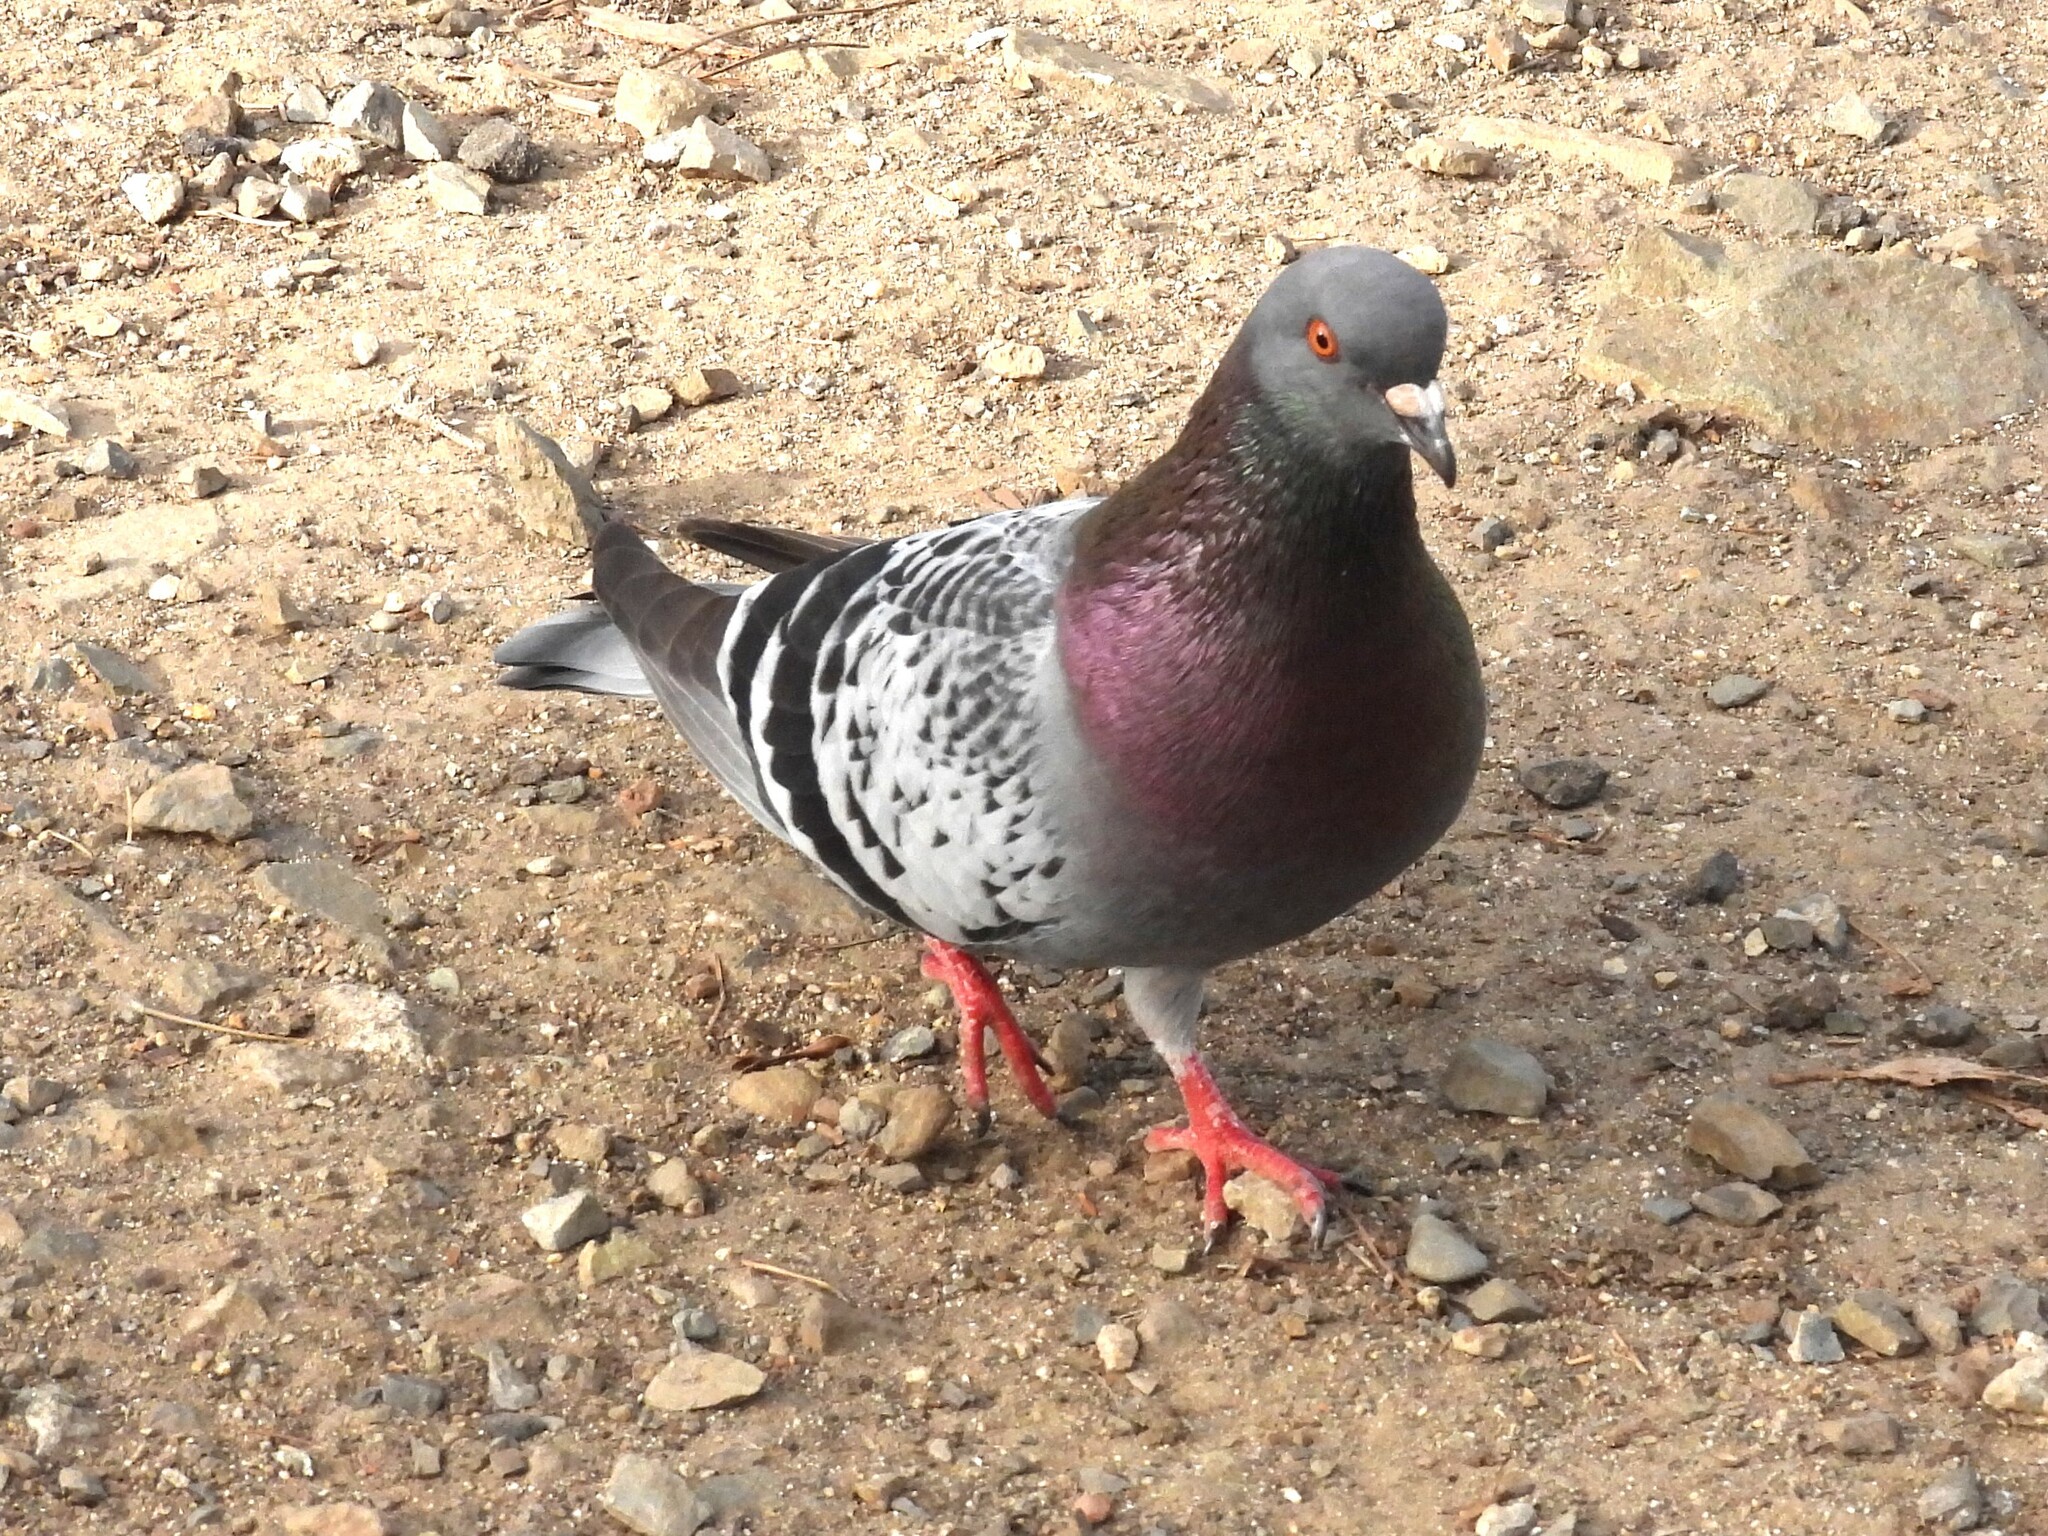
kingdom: Animalia
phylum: Chordata
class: Aves
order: Columbiformes
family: Columbidae
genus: Columba
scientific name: Columba livia
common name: Rock pigeon
